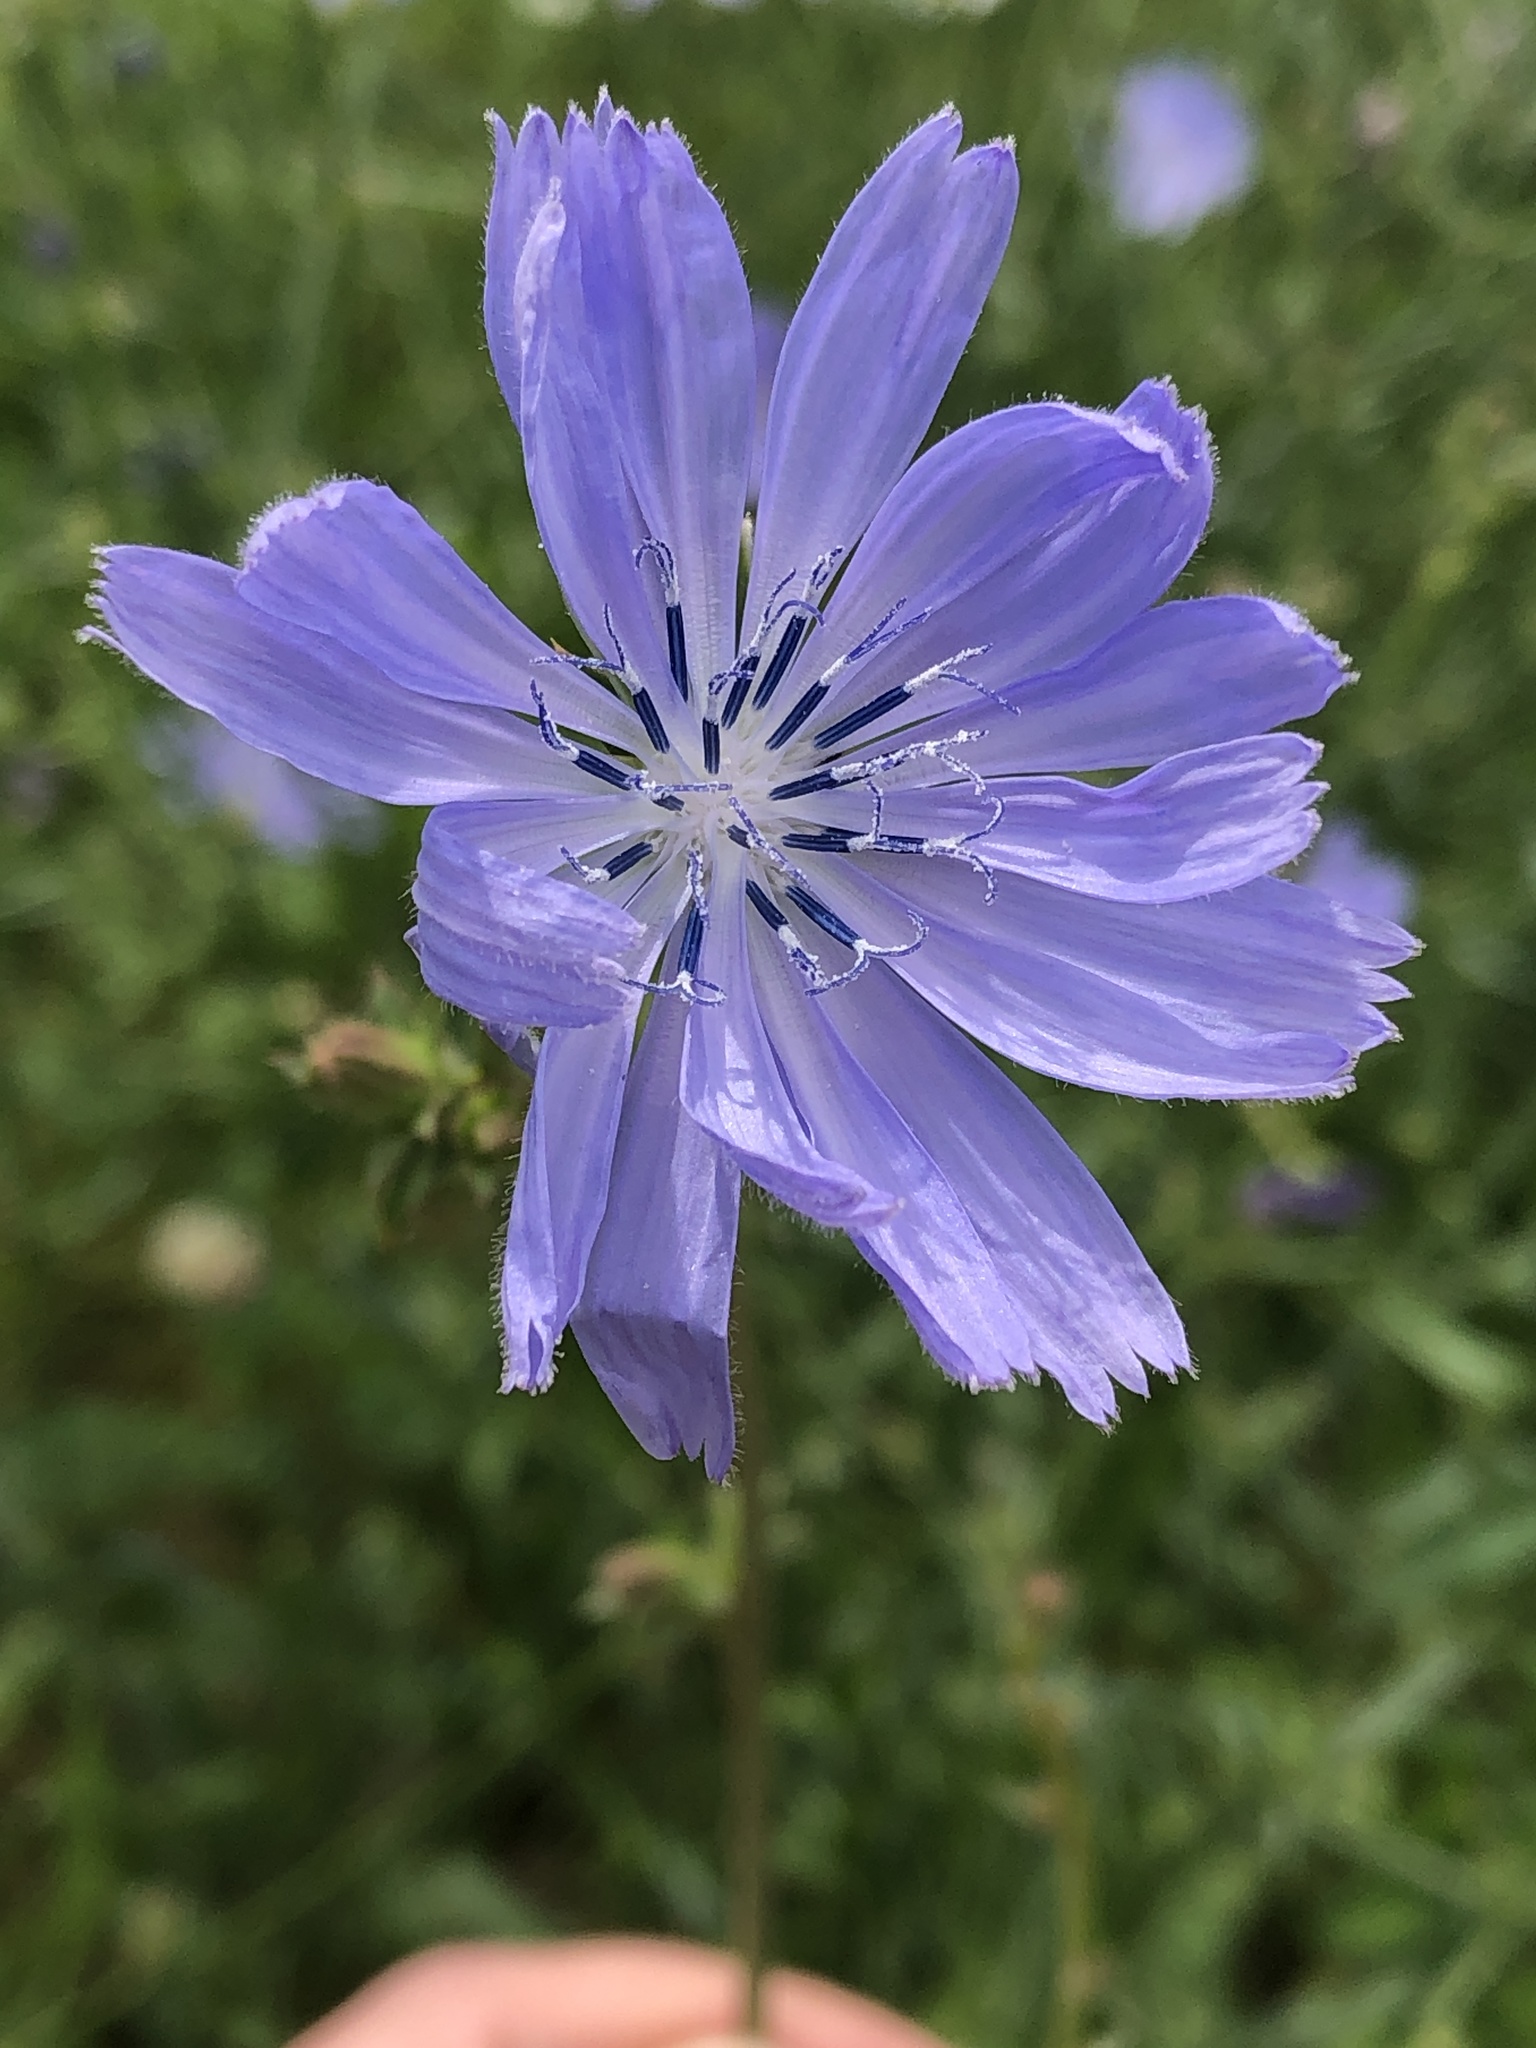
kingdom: Plantae
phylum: Tracheophyta
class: Magnoliopsida
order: Asterales
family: Asteraceae
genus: Cichorium
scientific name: Cichorium intybus
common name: Chicory
